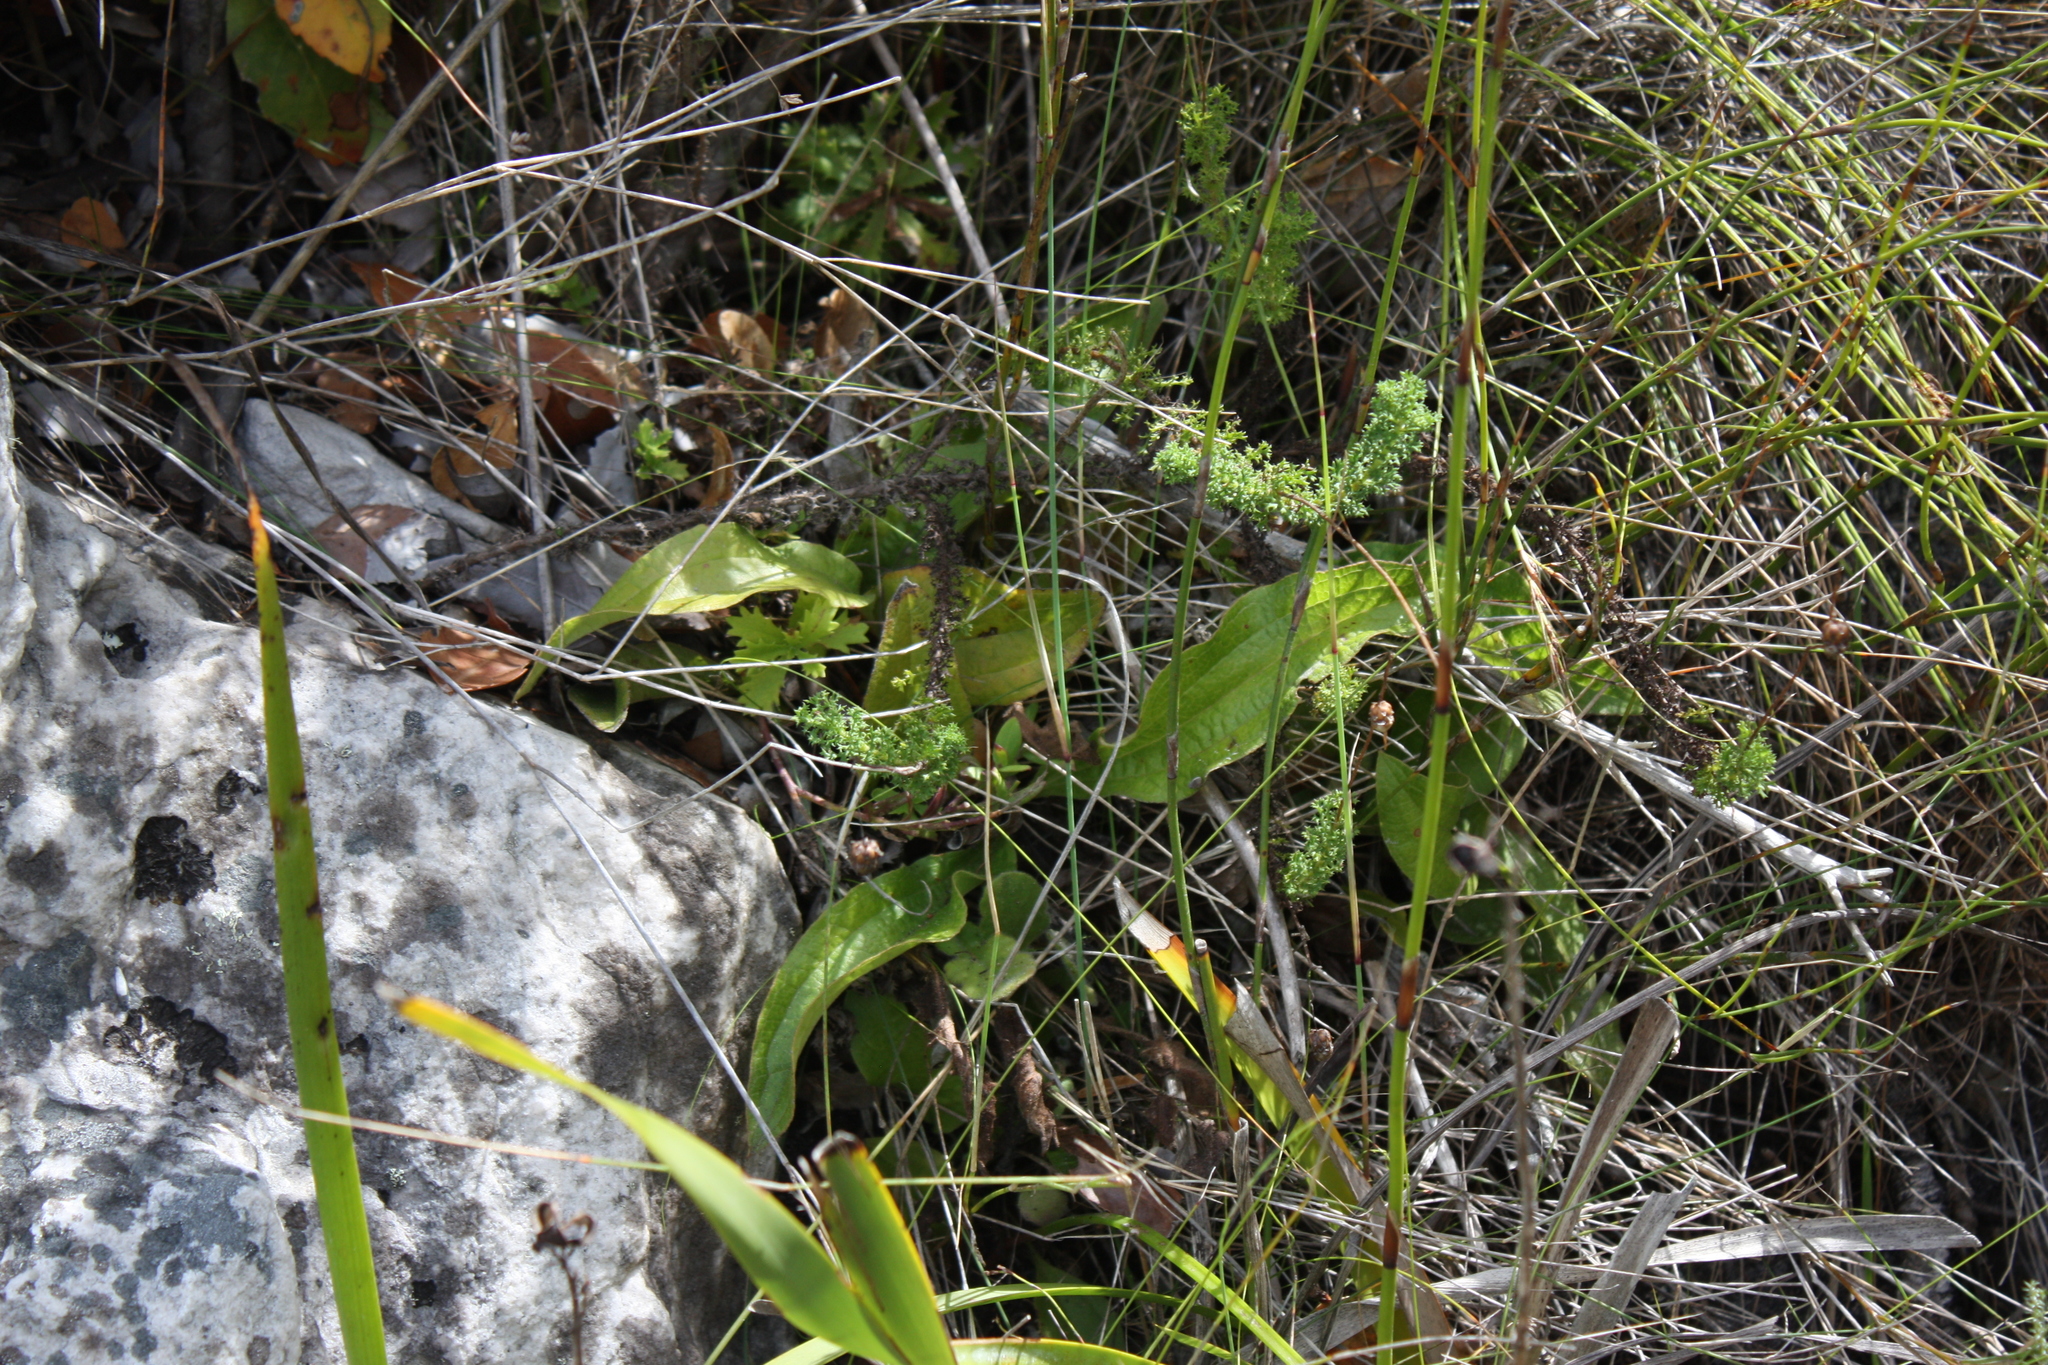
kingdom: Plantae
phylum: Tracheophyta
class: Magnoliopsida
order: Asterales
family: Asteraceae
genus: Helichrysum
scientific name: Helichrysum nudifolium
